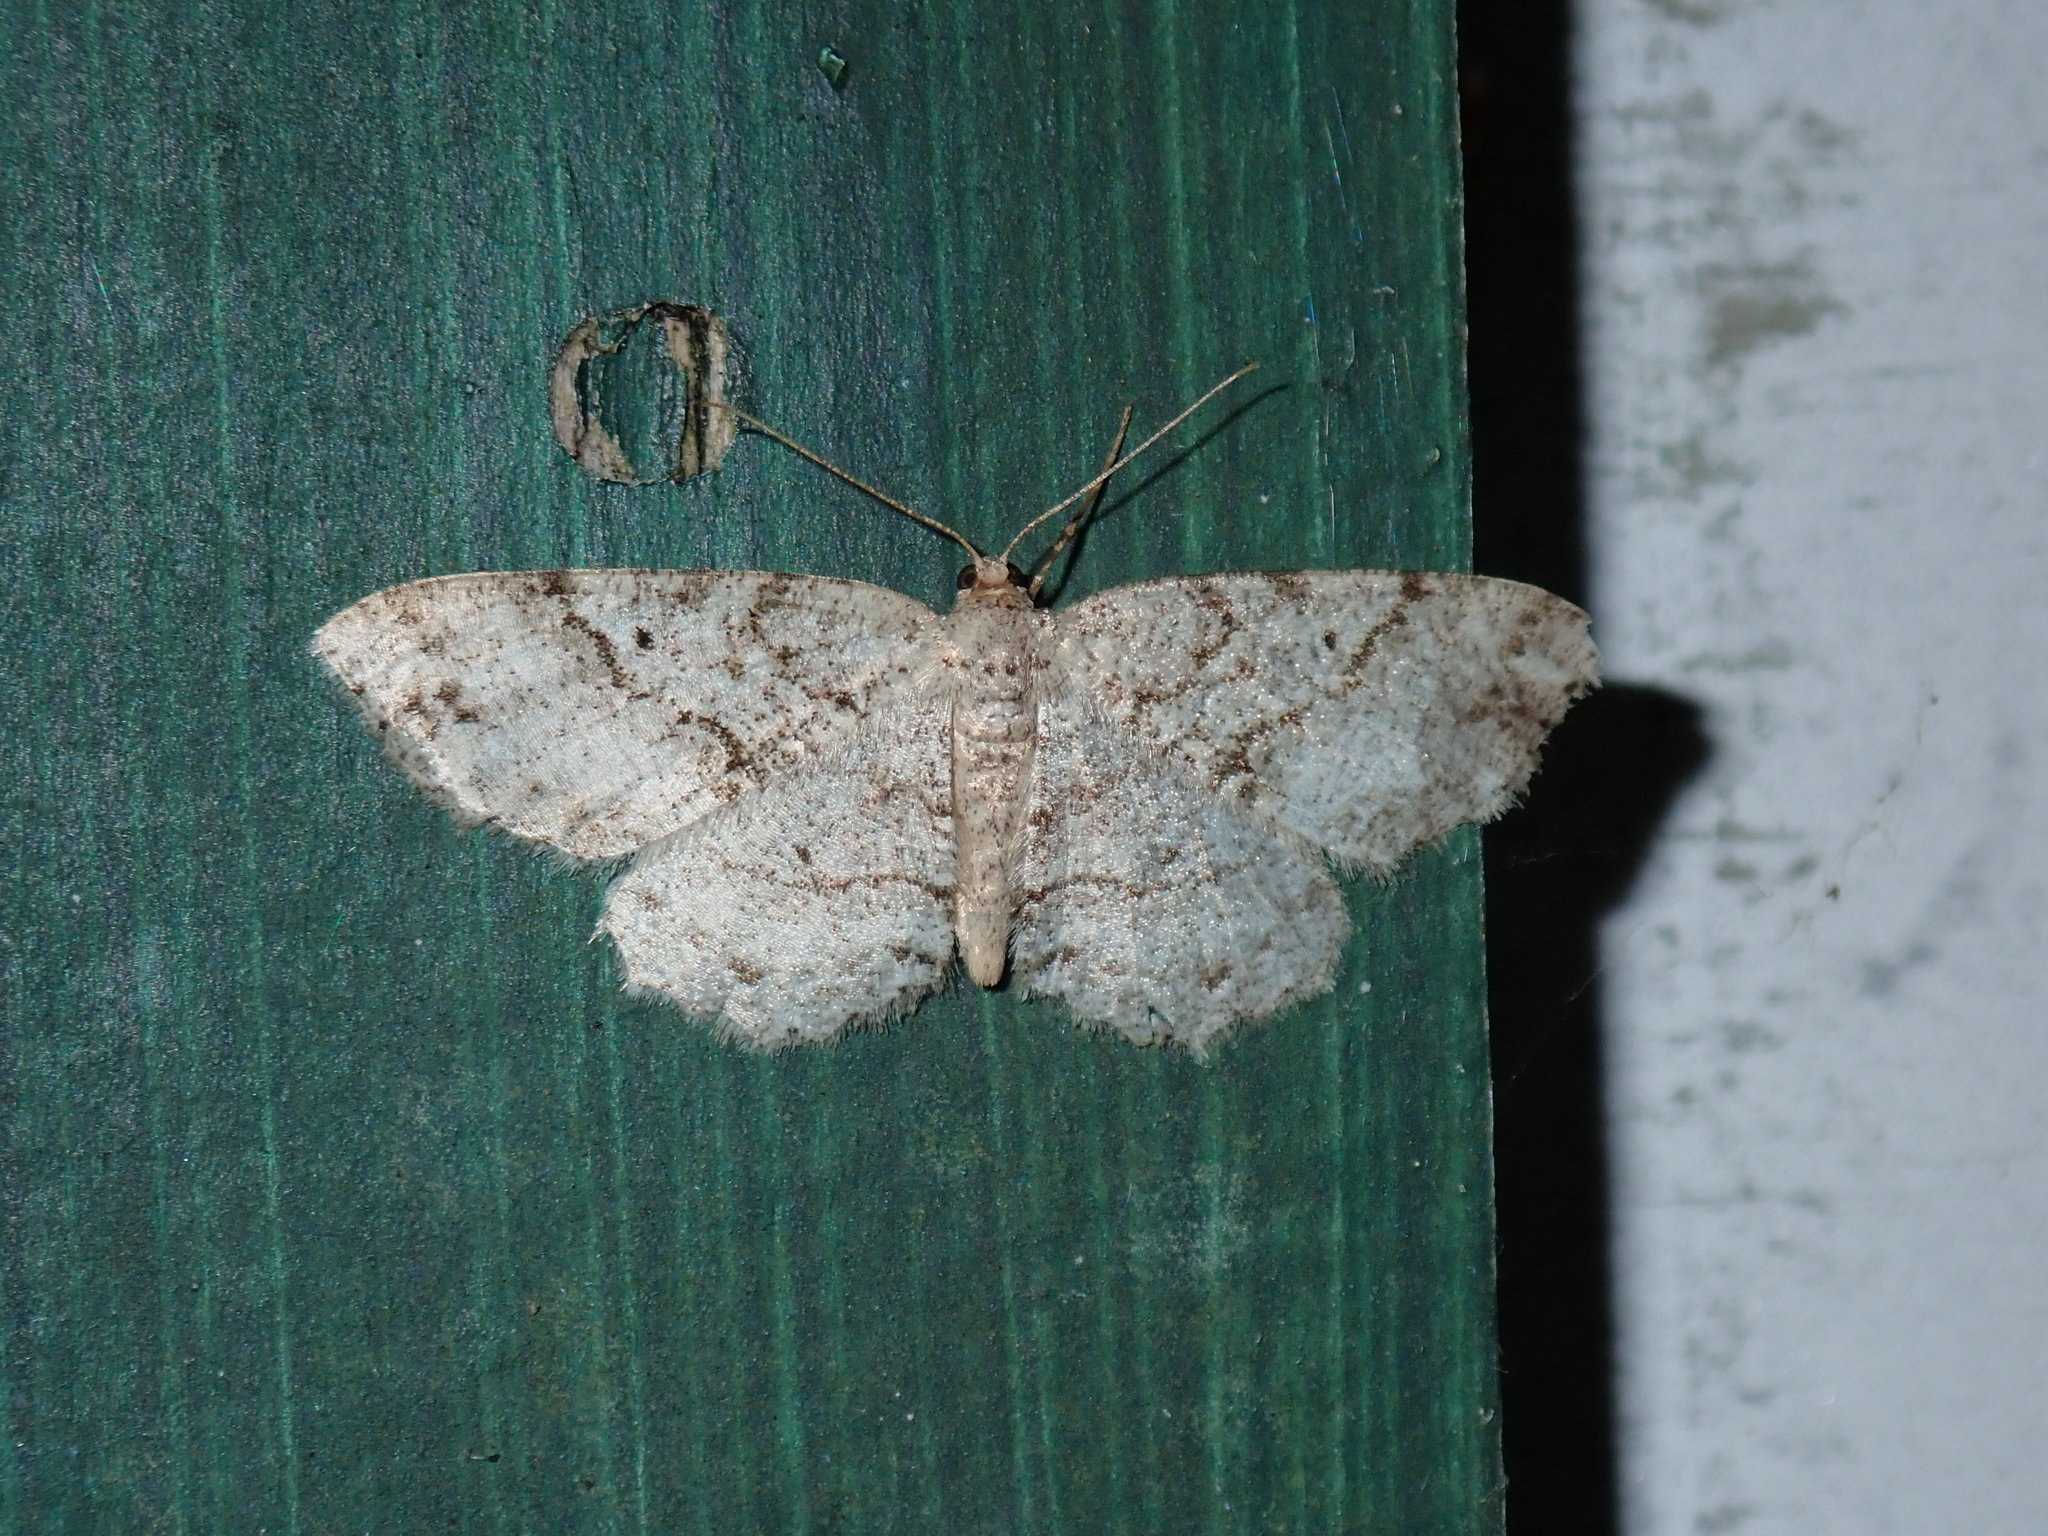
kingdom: Animalia
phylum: Arthropoda
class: Insecta
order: Lepidoptera
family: Geometridae
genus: Melanolophia
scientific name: Melanolophia signataria
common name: Signate melanolophia
